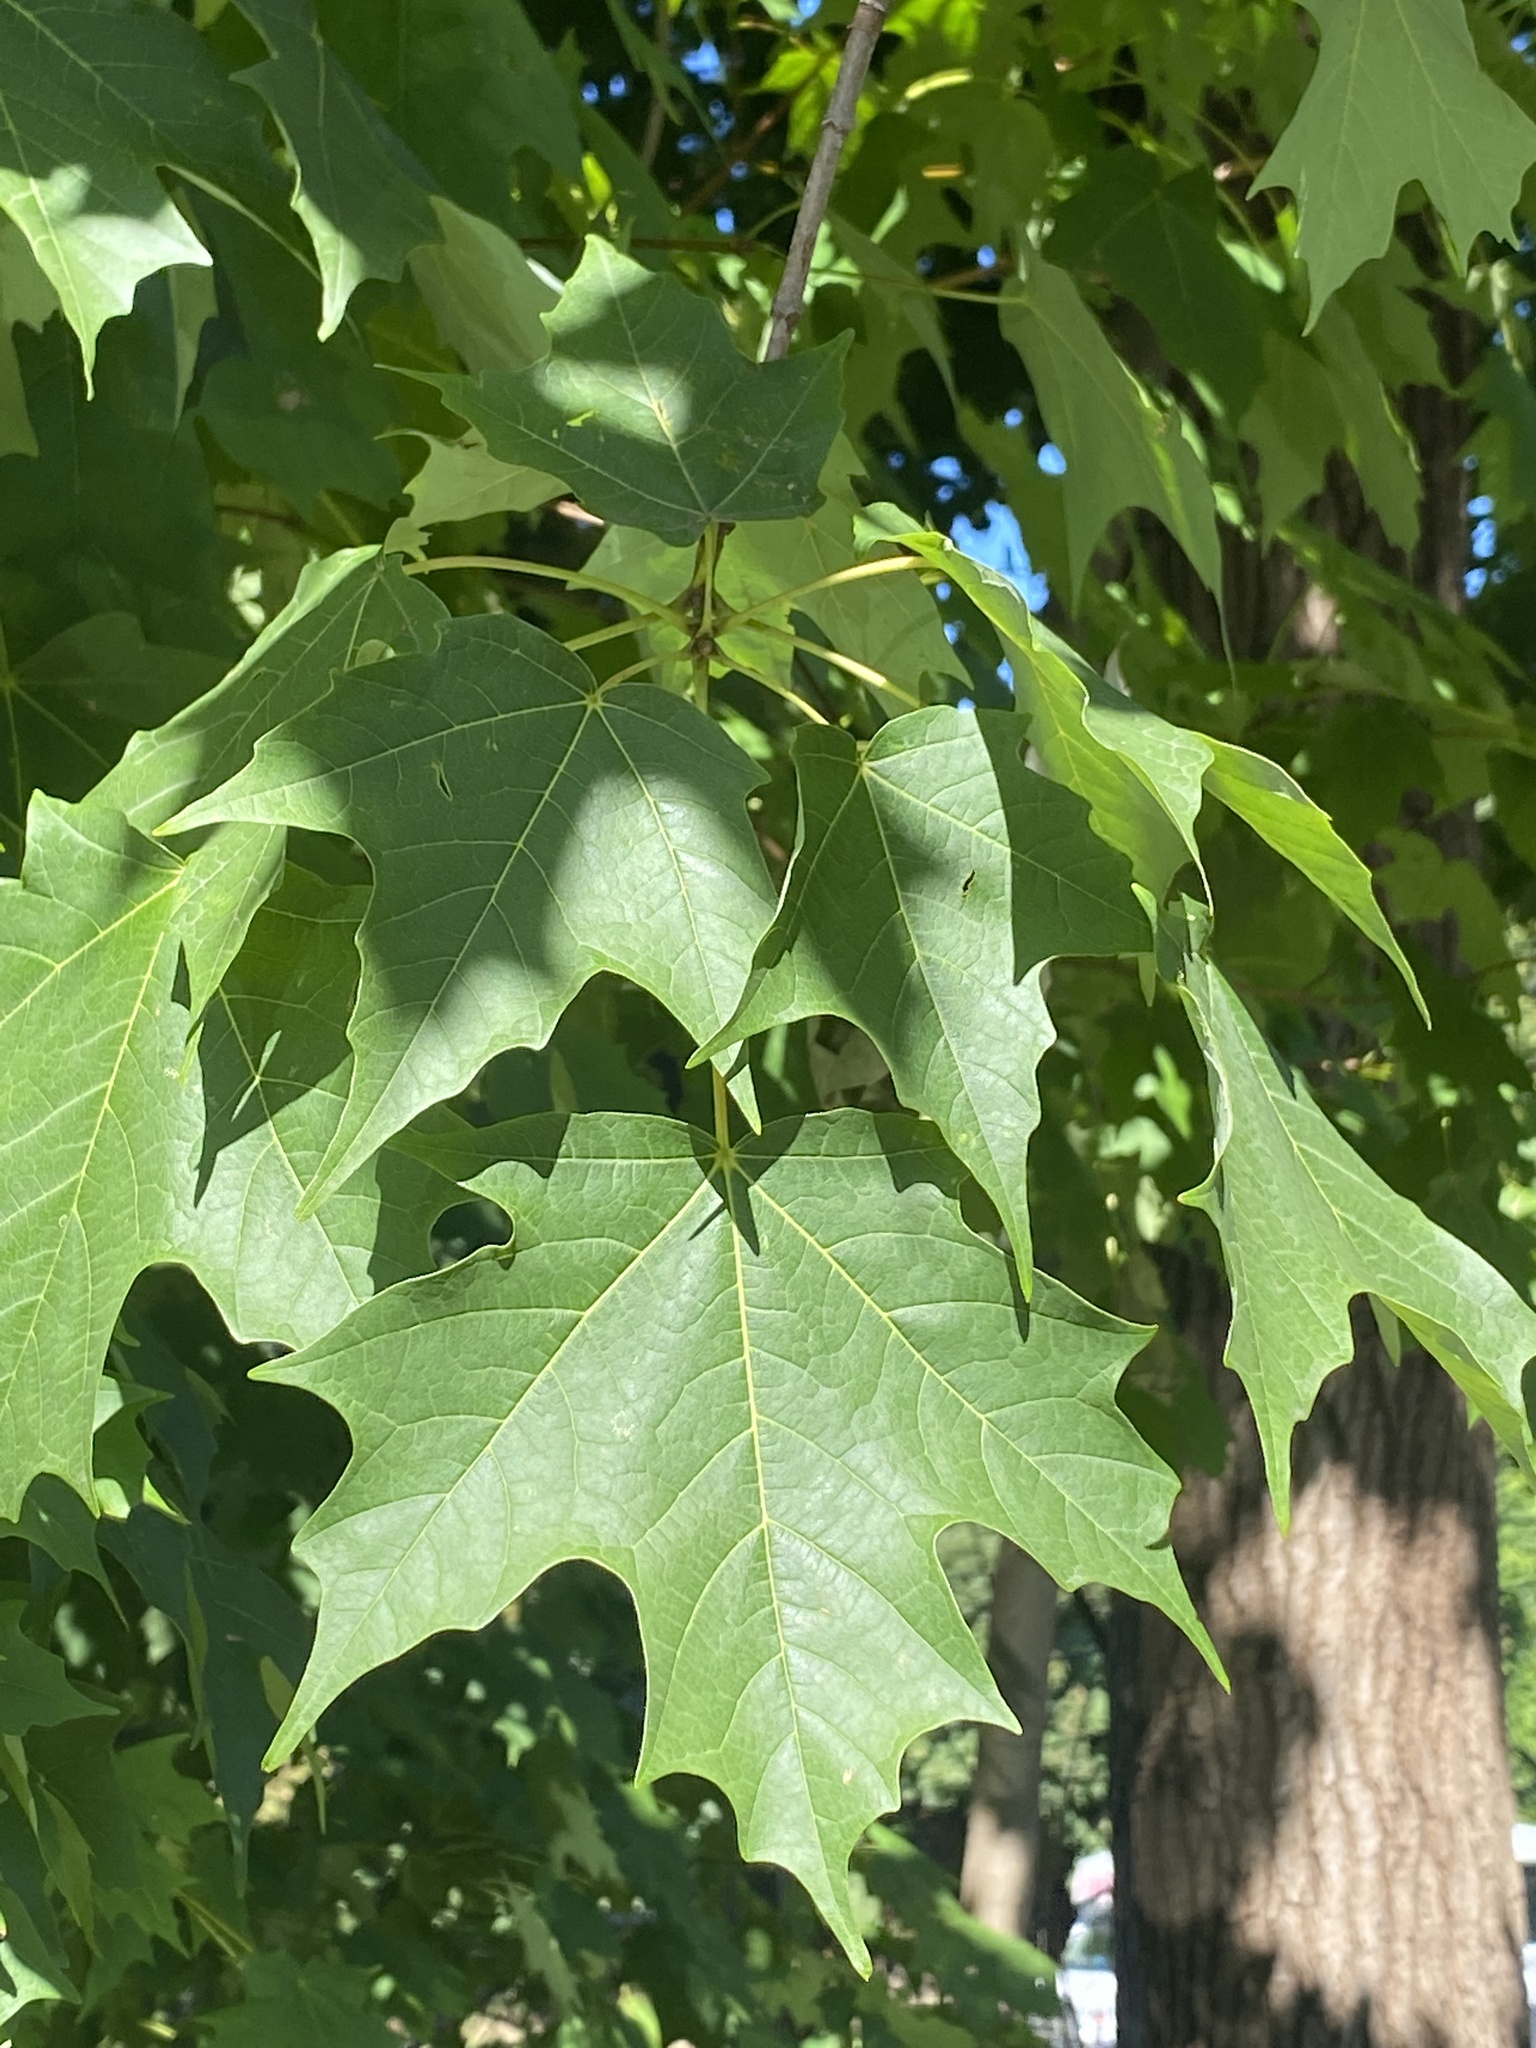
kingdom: Plantae
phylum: Tracheophyta
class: Magnoliopsida
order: Sapindales
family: Sapindaceae
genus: Acer
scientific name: Acer saccharum
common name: Sugar maple
